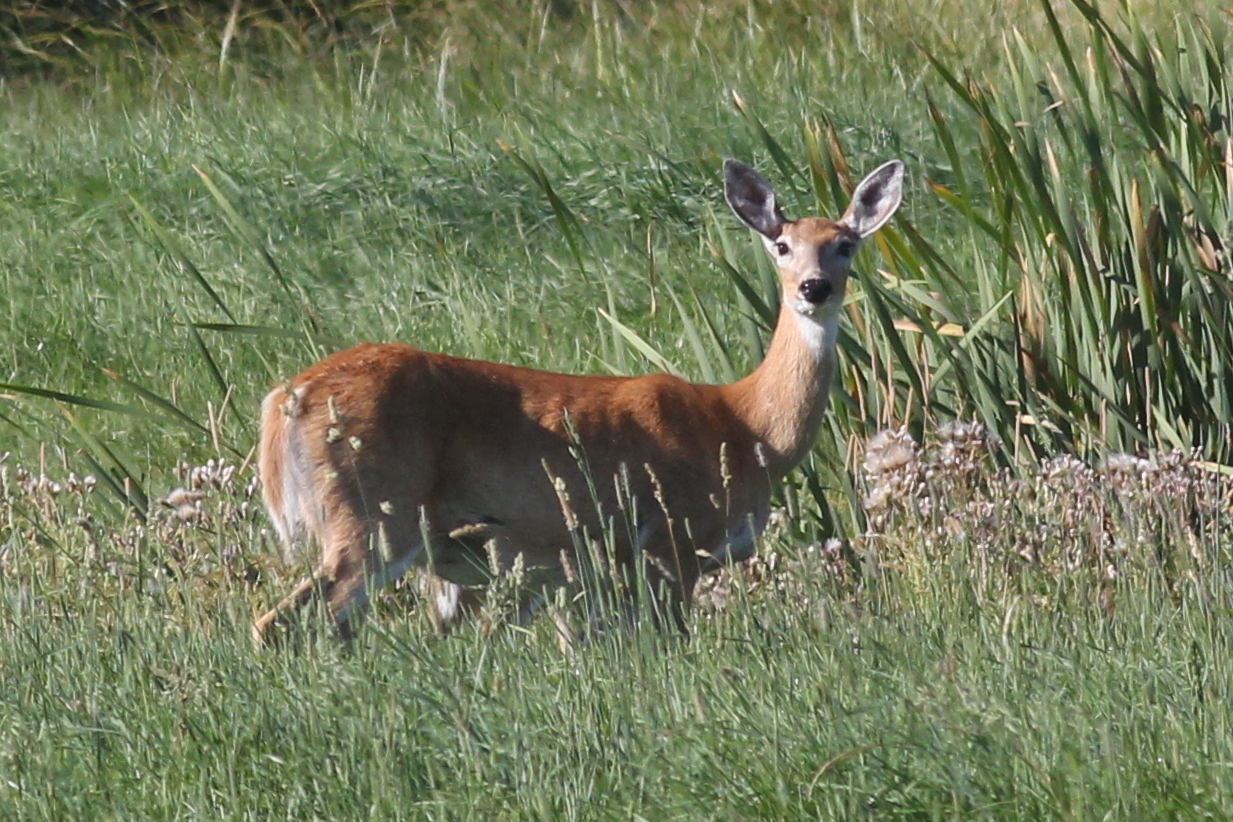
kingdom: Animalia
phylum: Chordata
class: Mammalia
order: Artiodactyla
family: Cervidae
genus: Odocoileus
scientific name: Odocoileus virginianus
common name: White-tailed deer
